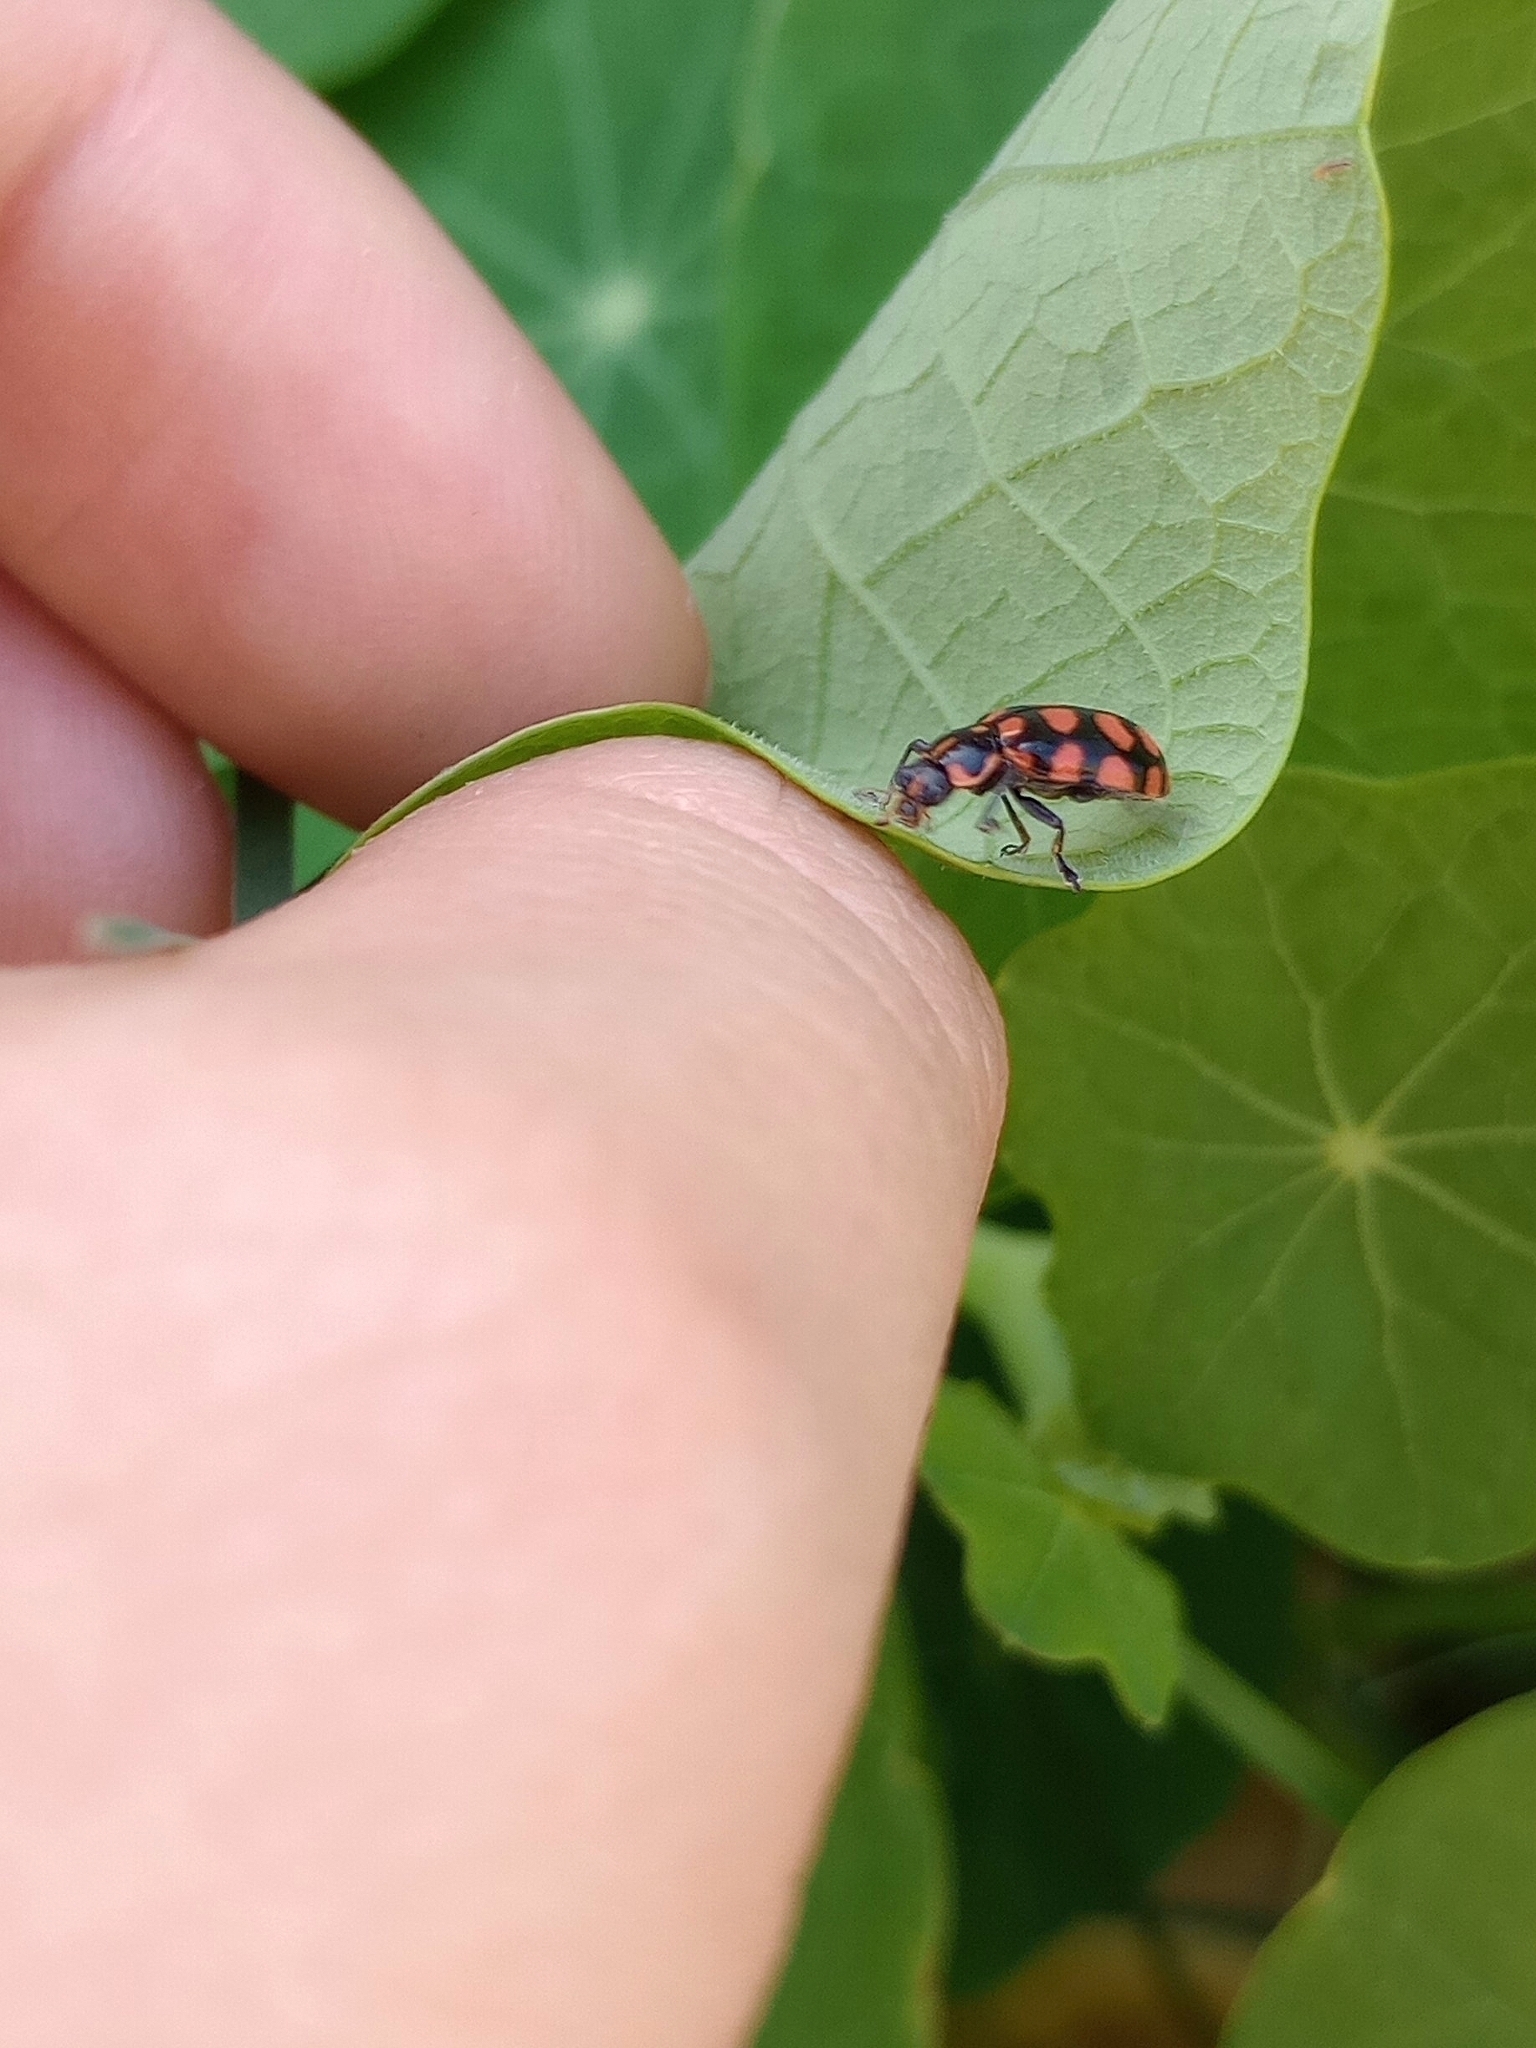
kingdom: Animalia
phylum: Arthropoda
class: Insecta
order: Coleoptera
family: Coccinellidae
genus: Coleomegilla
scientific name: Coleomegilla
